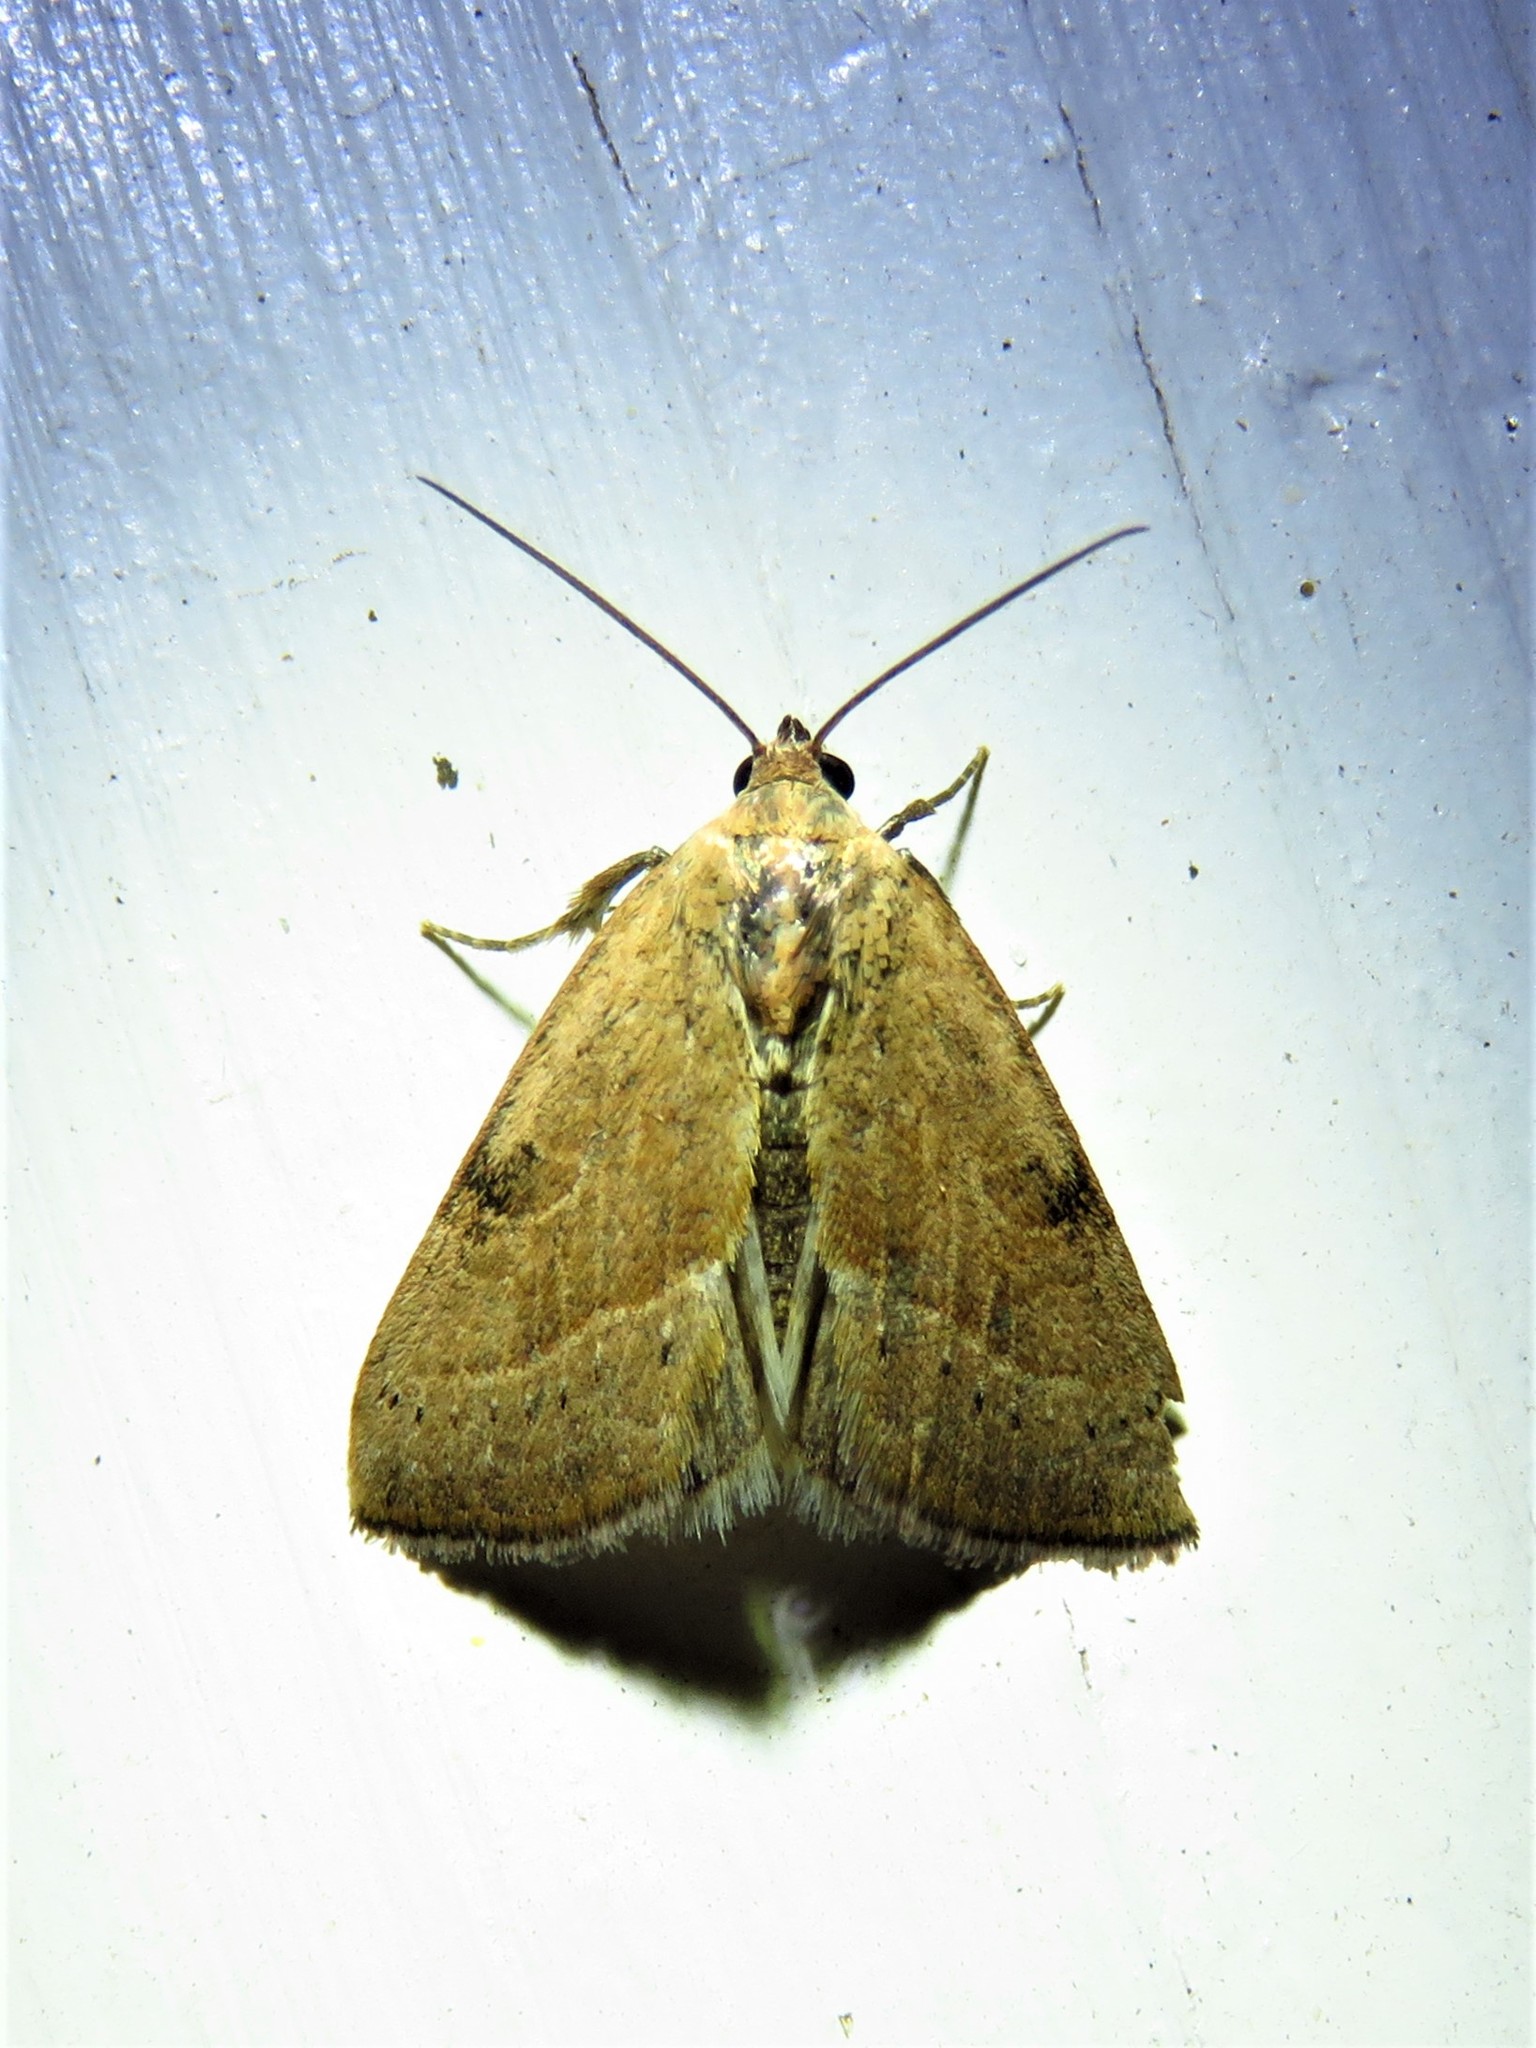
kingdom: Animalia
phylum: Arthropoda
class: Insecta
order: Lepidoptera
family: Noctuidae
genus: Galgula
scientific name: Galgula partita
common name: Wedgeling
